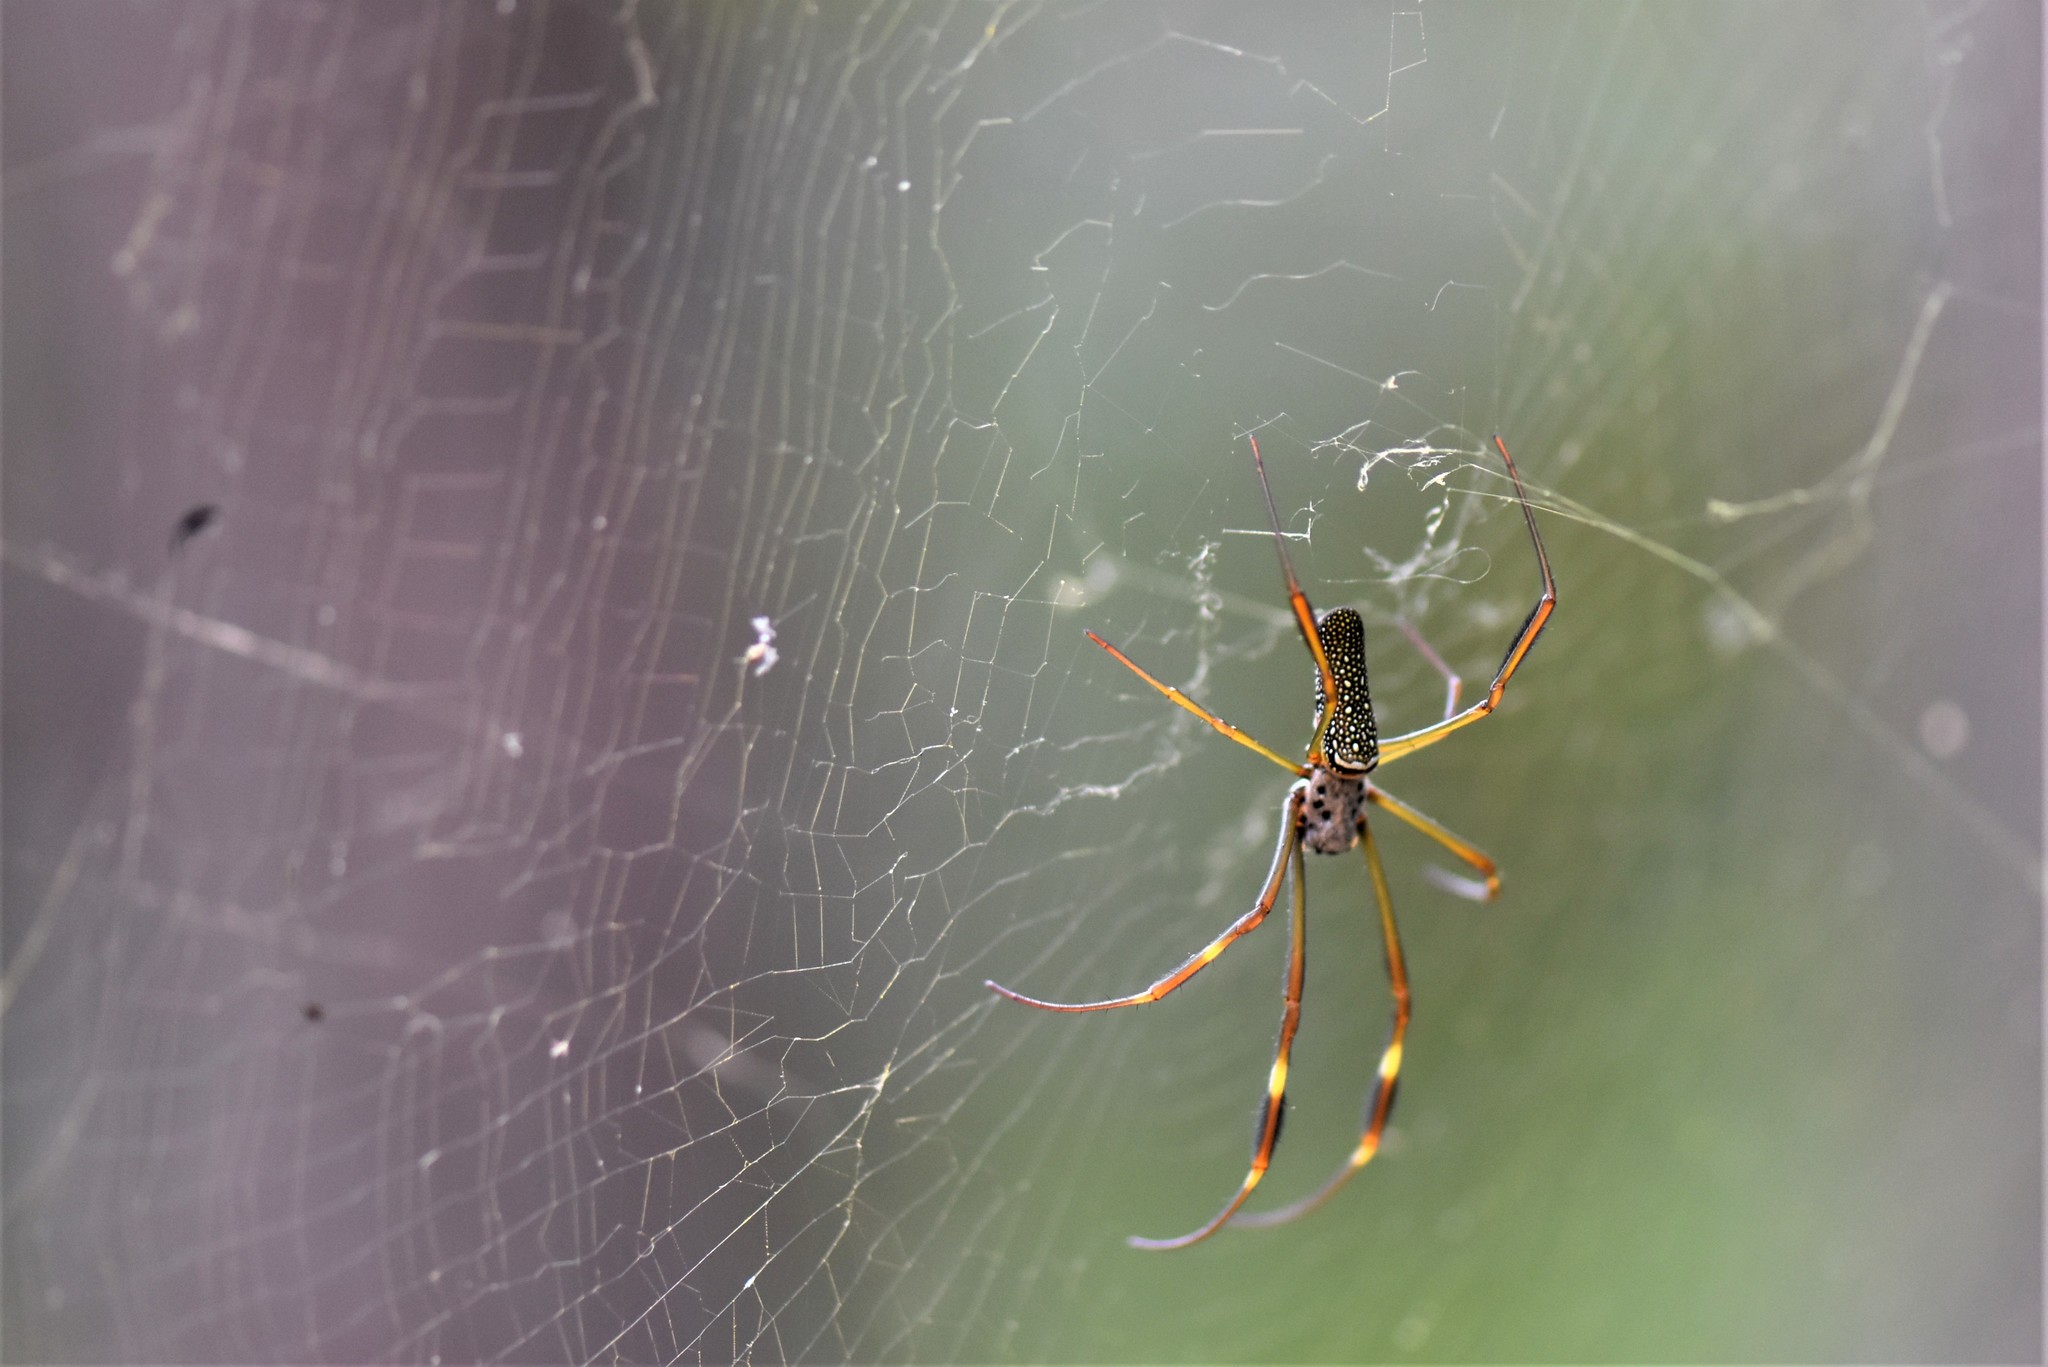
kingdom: Animalia
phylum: Arthropoda
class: Arachnida
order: Araneae
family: Araneidae
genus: Trichonephila
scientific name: Trichonephila clavipes
